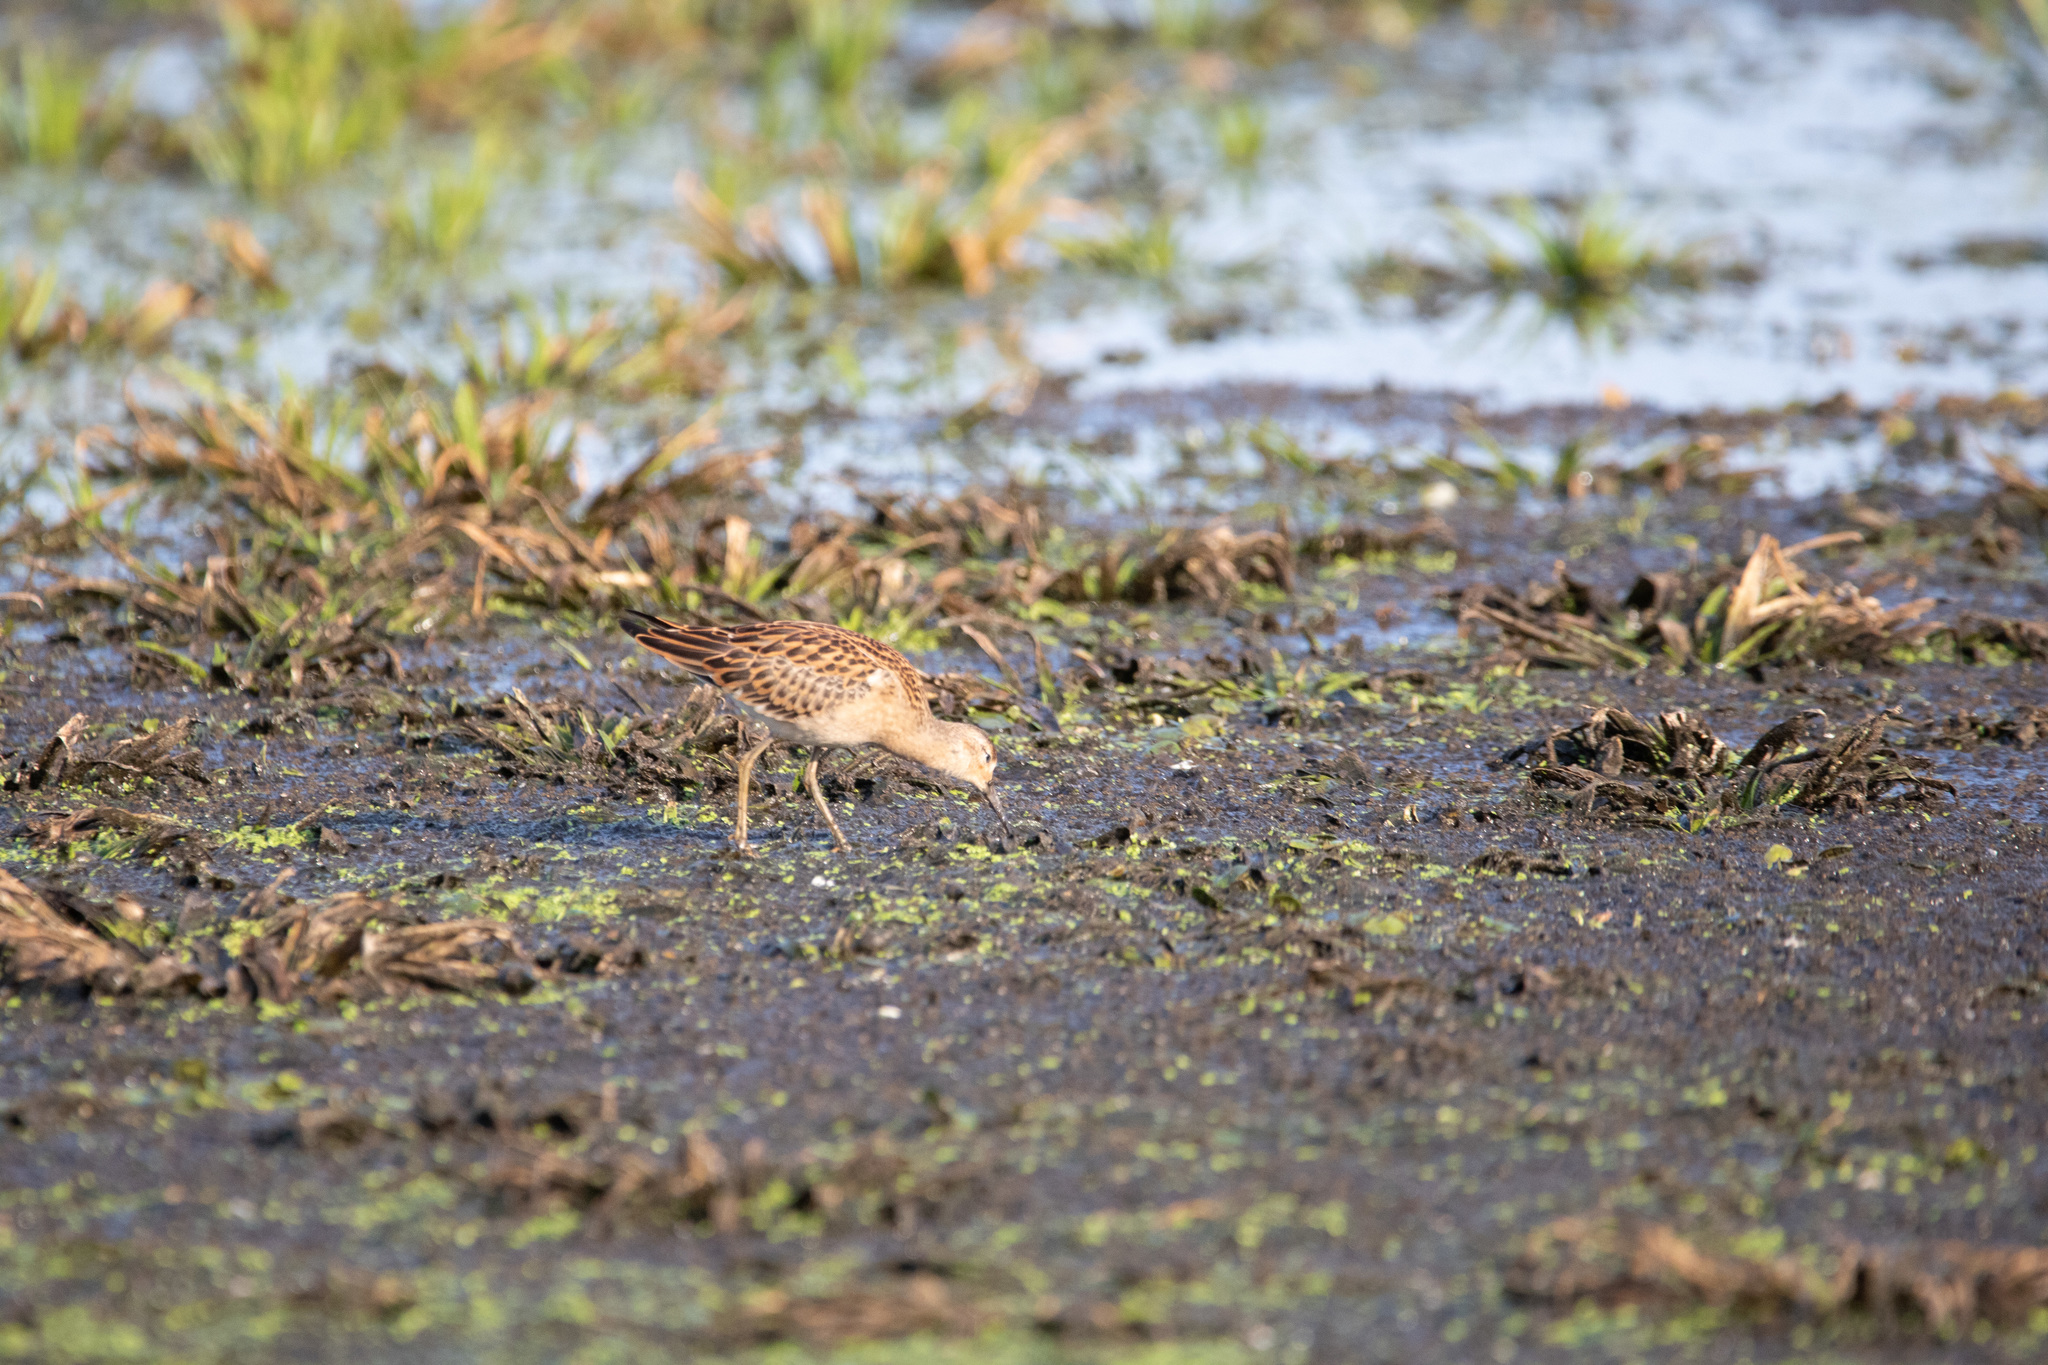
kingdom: Animalia
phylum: Chordata
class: Aves
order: Charadriiformes
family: Scolopacidae
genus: Calidris
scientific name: Calidris pugnax
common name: Ruff
